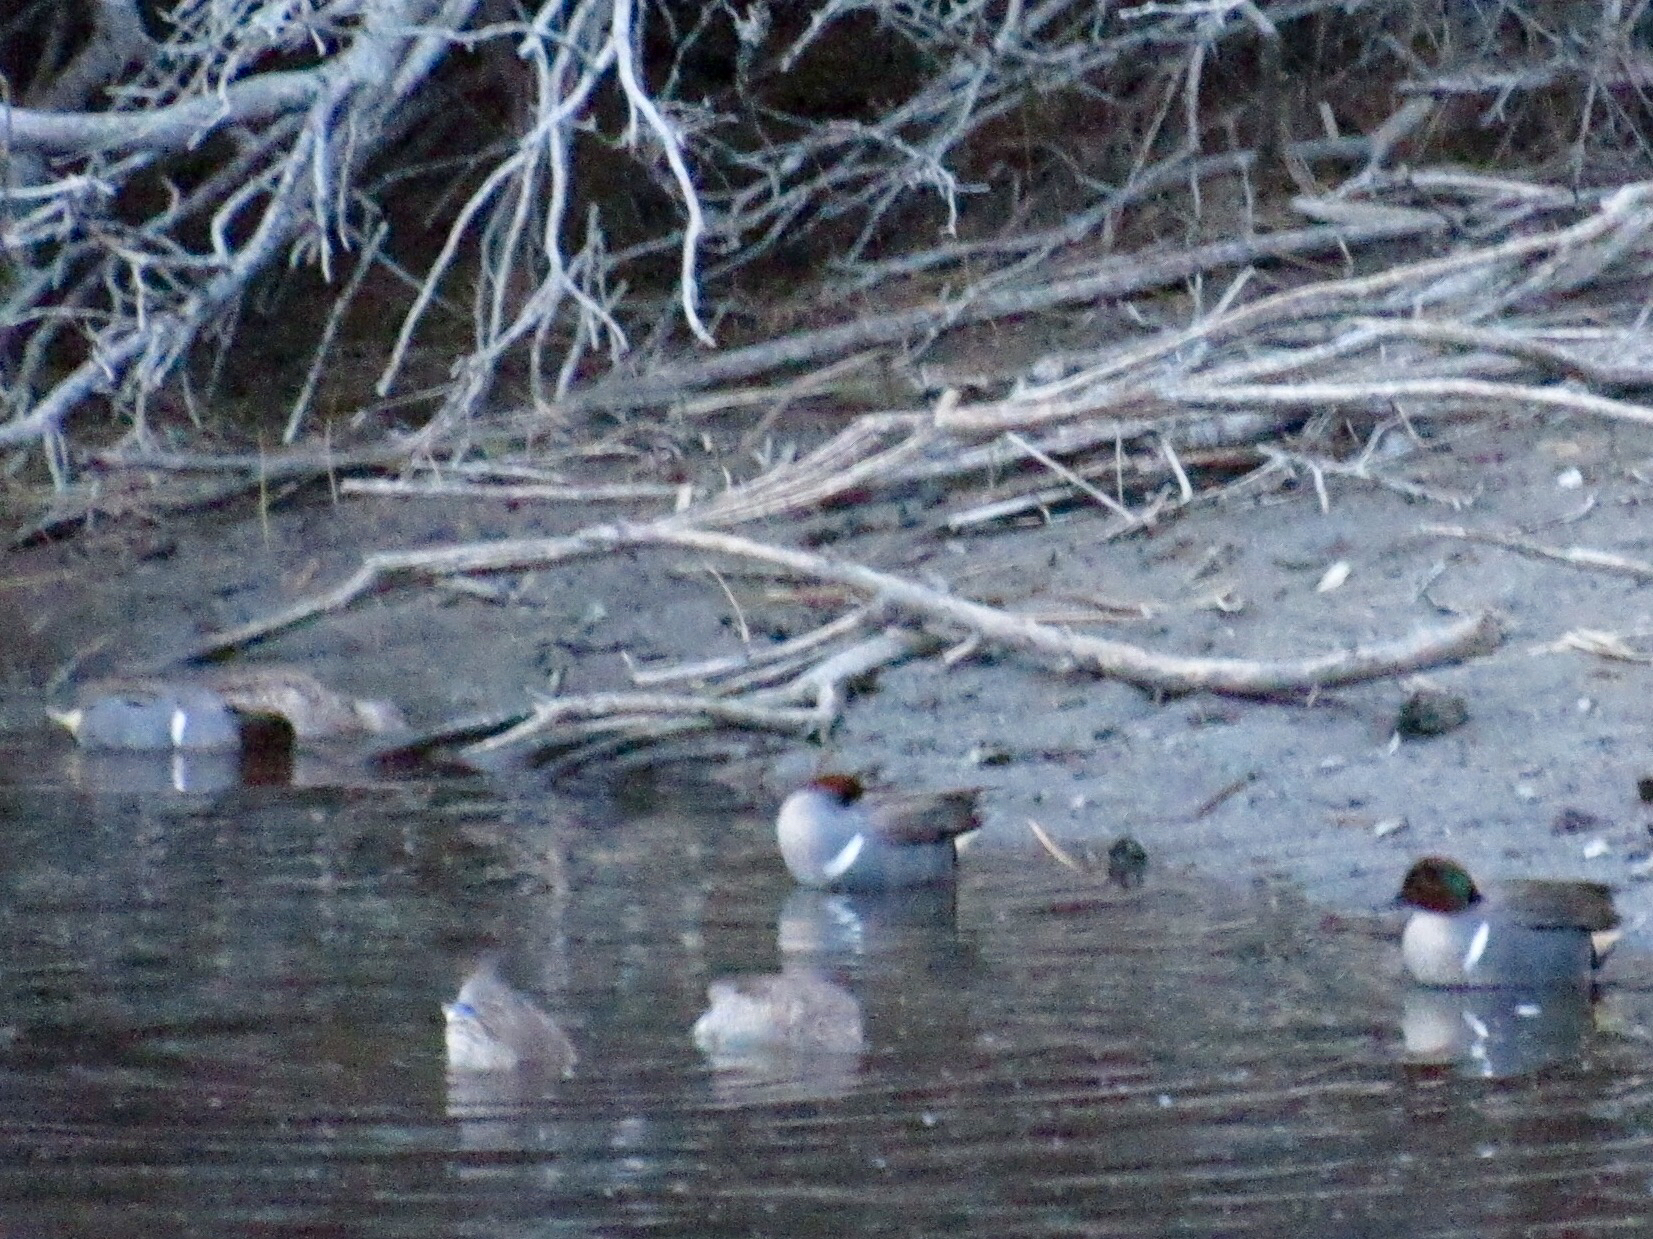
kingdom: Animalia
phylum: Chordata
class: Aves
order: Anseriformes
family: Anatidae
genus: Anas
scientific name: Anas carolinensis
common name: Green-winged teal
